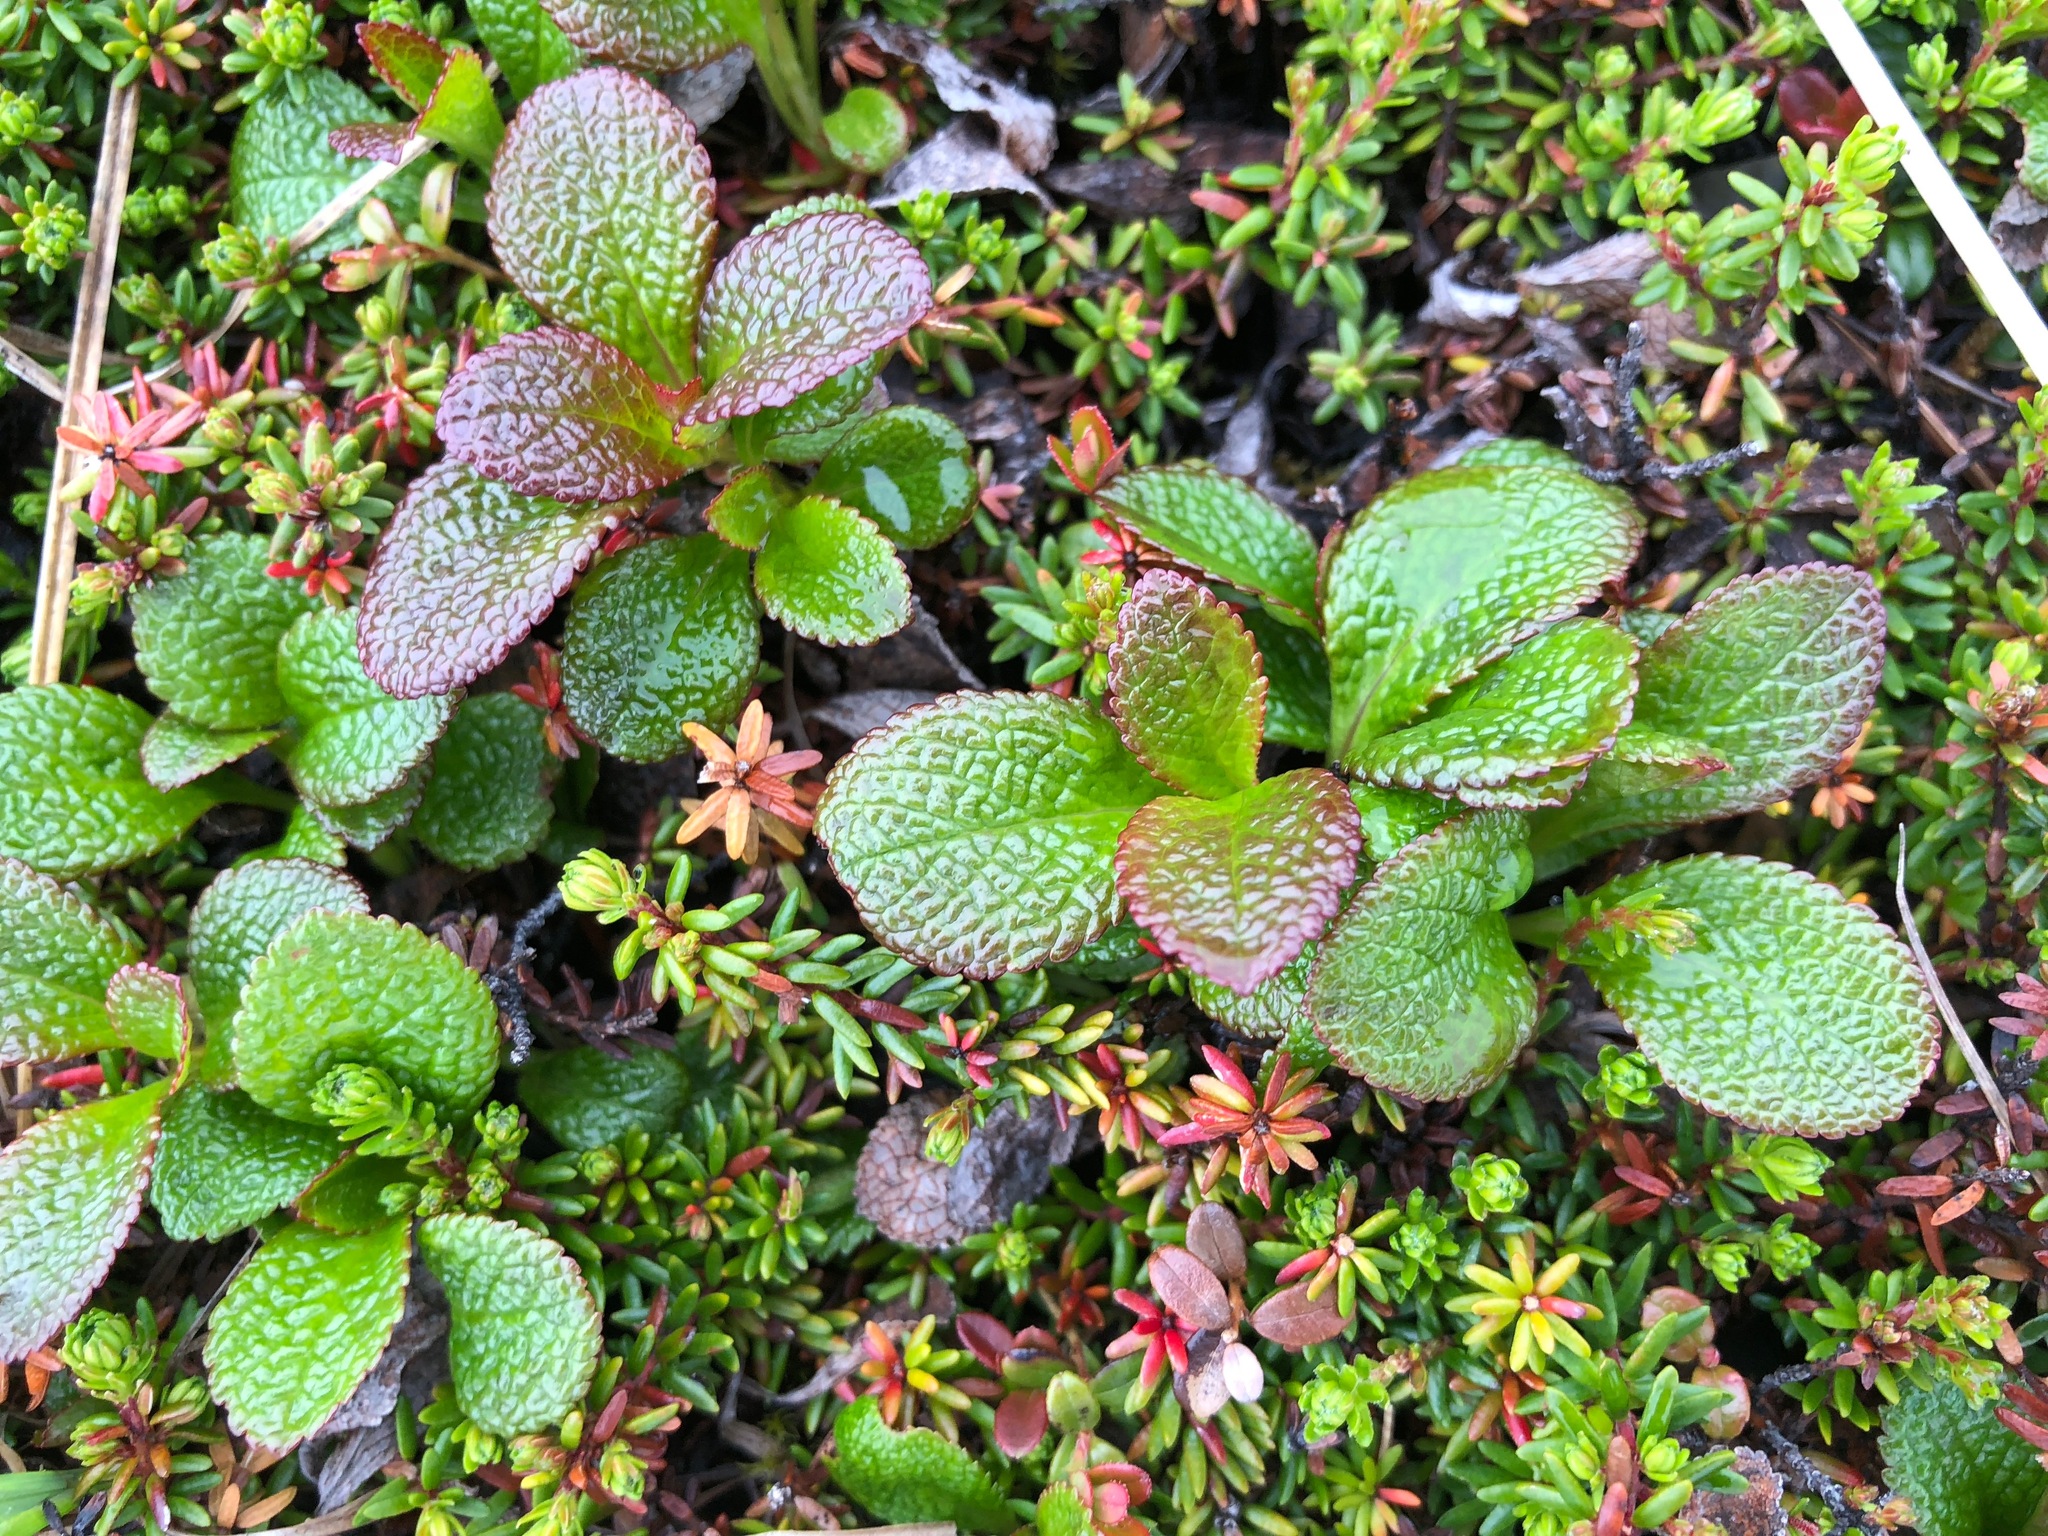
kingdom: Plantae
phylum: Tracheophyta
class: Magnoliopsida
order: Ericales
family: Ericaceae
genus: Arctostaphylos
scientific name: Arctostaphylos alpinus
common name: Alpine bearberry
